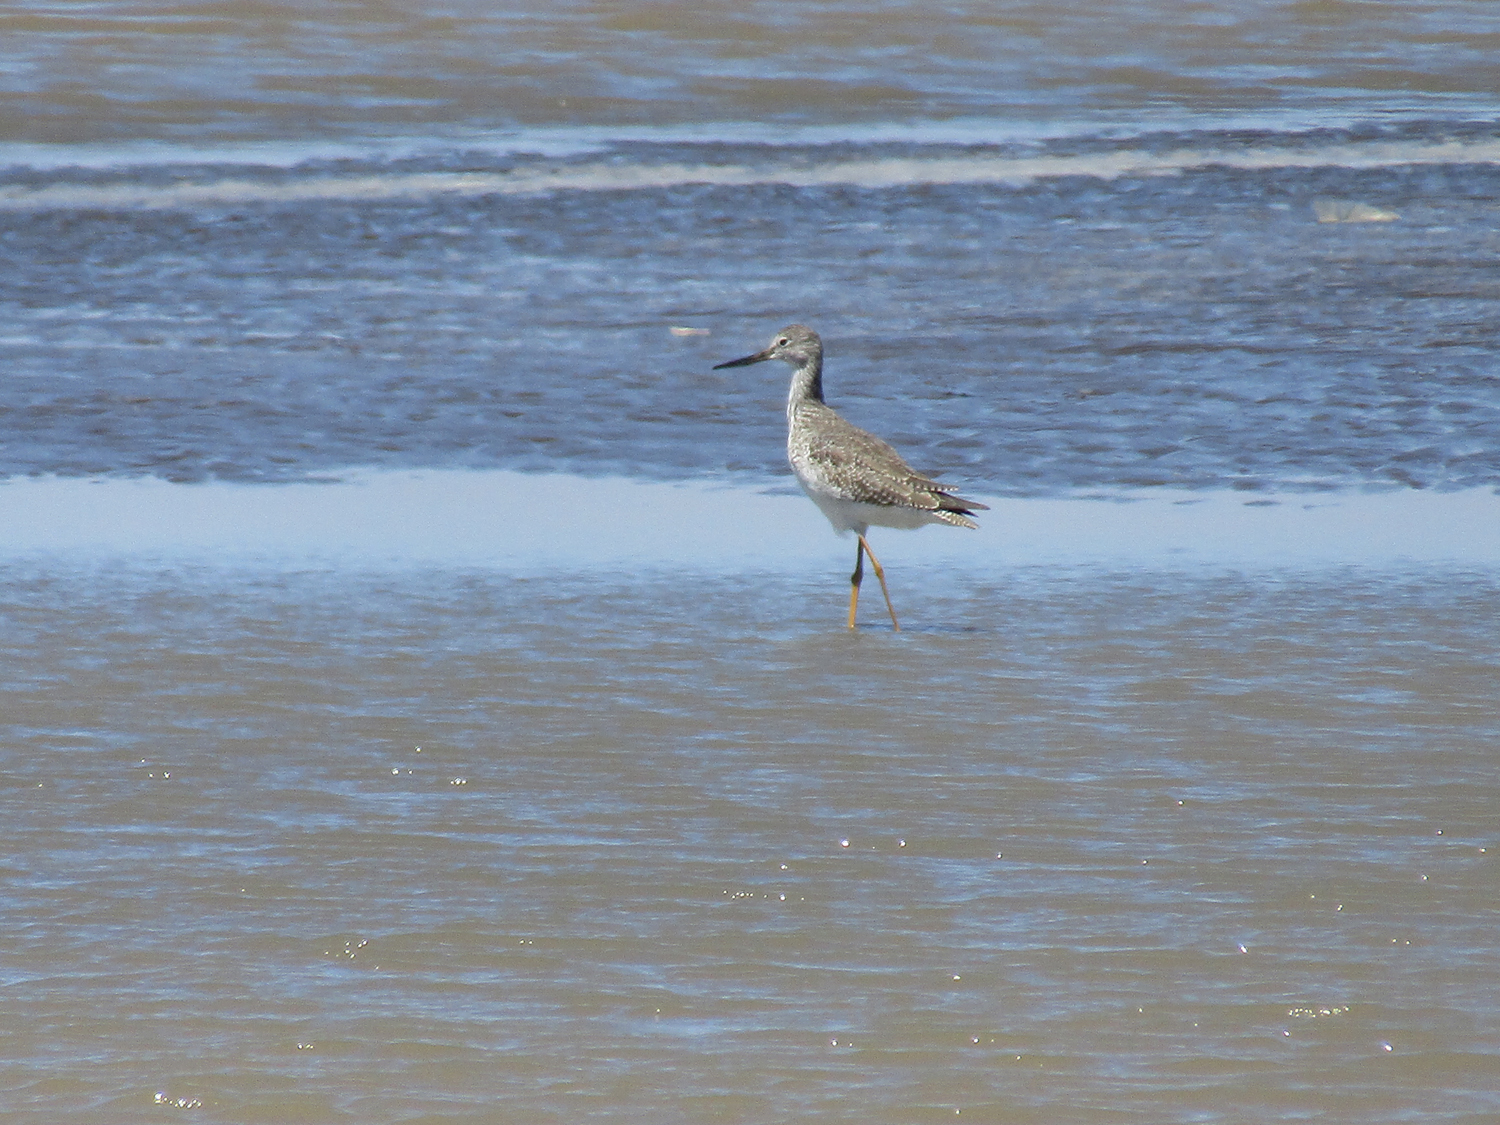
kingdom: Animalia
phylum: Chordata
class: Aves
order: Charadriiformes
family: Scolopacidae
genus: Tringa
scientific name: Tringa melanoleuca
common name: Greater yellowlegs
